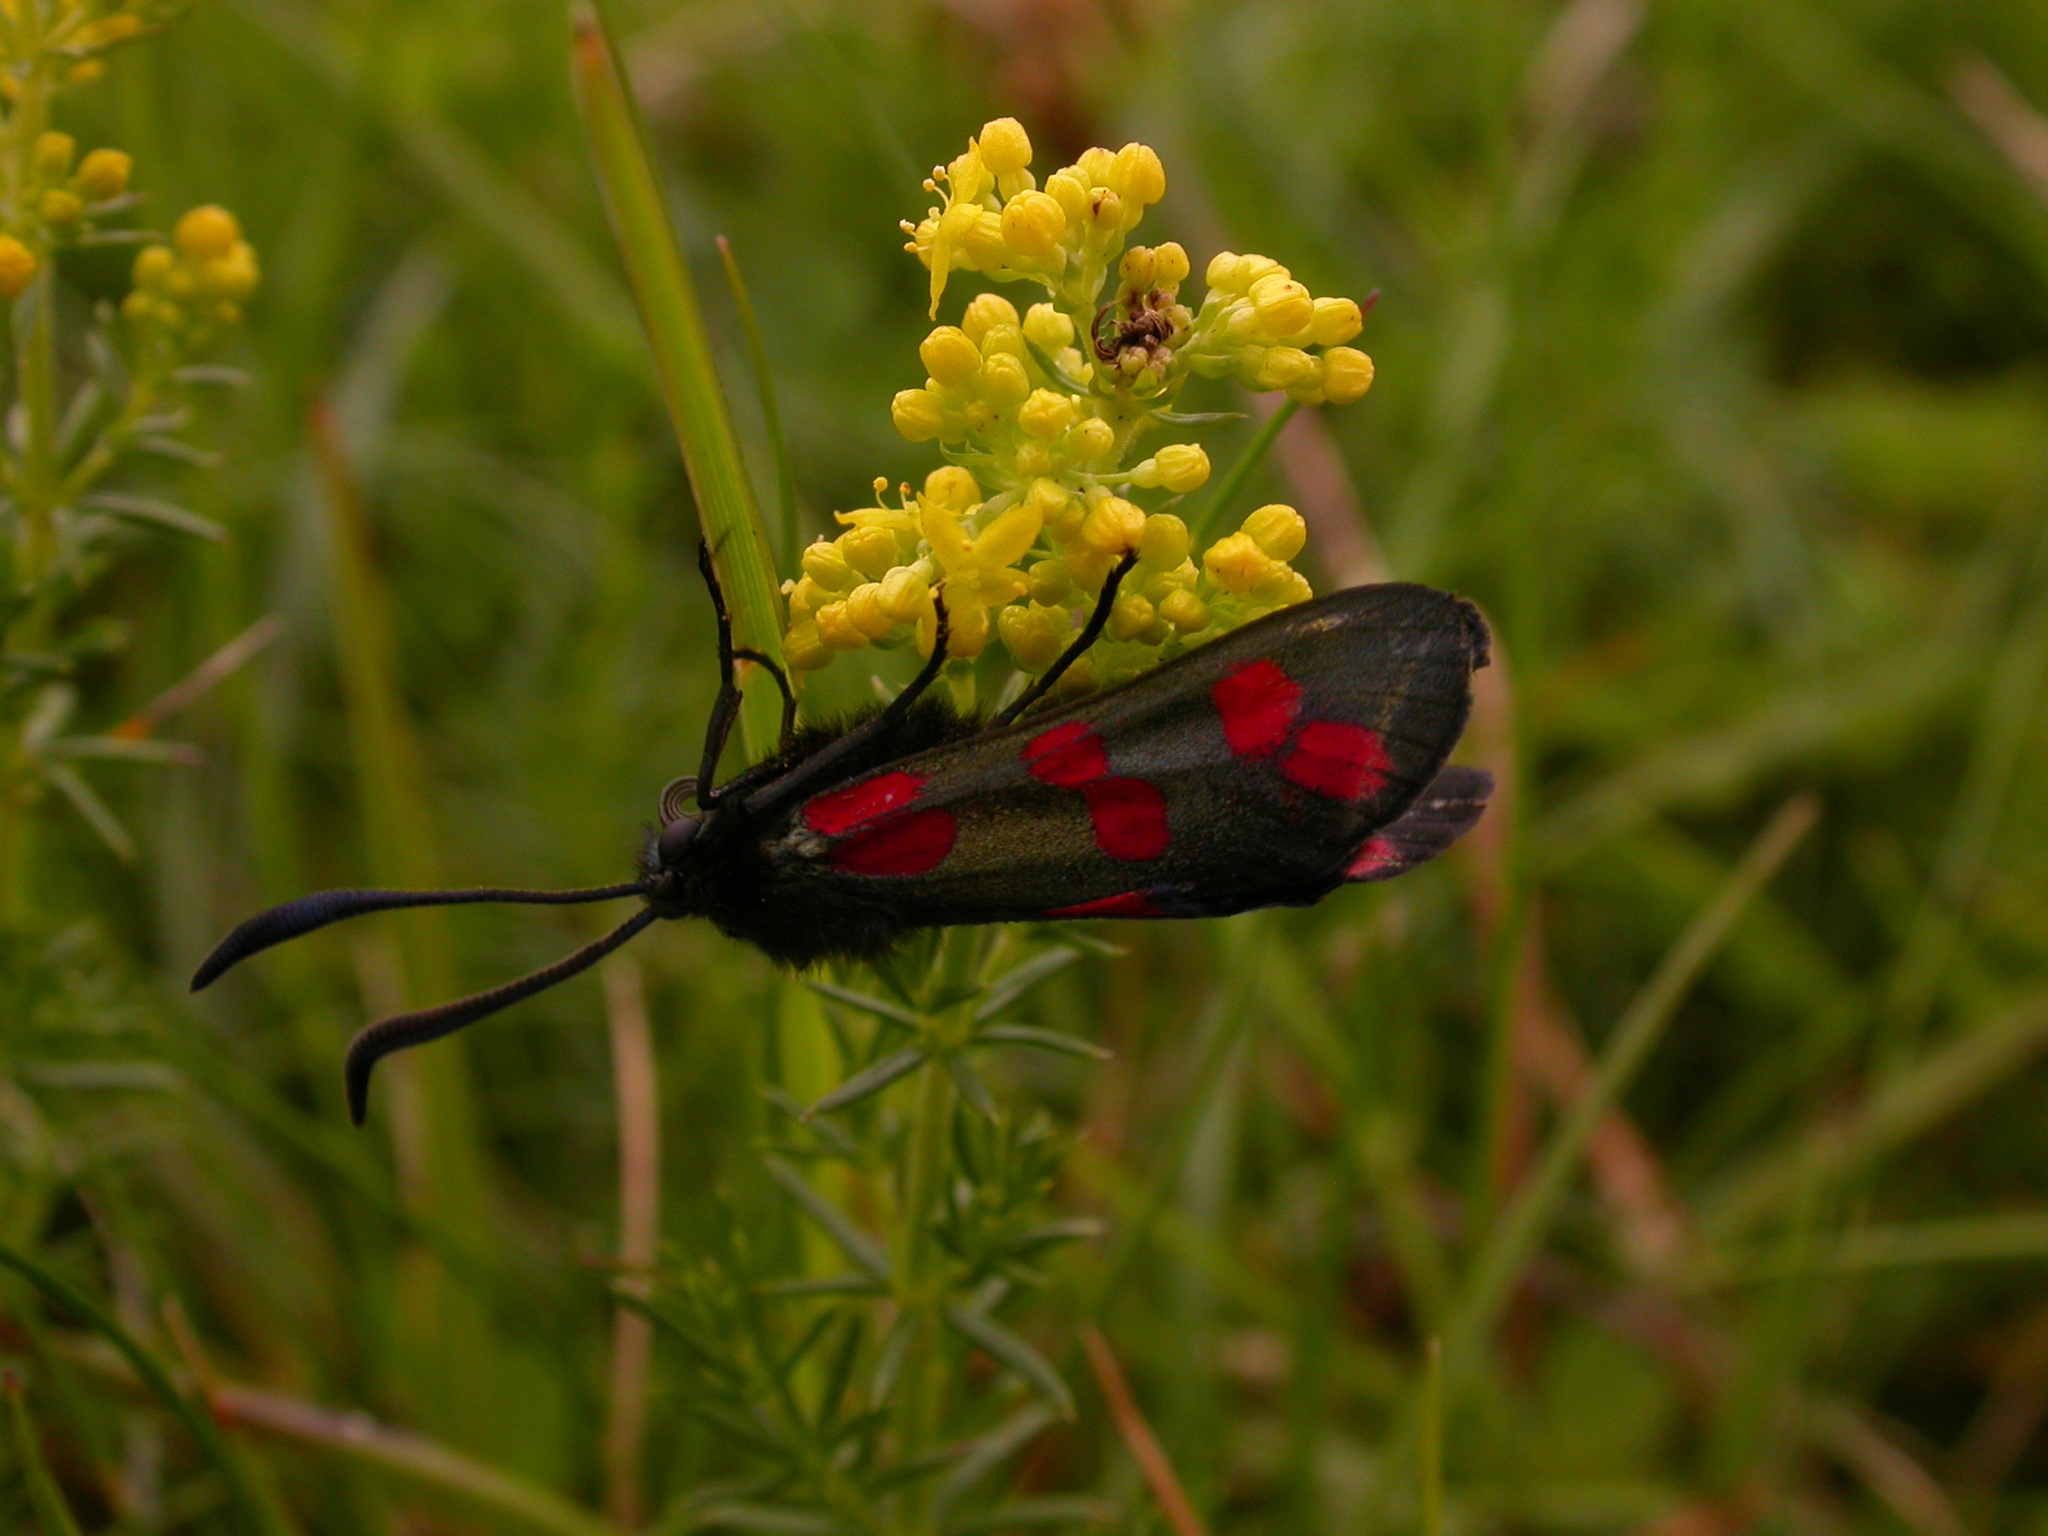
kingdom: Animalia
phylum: Arthropoda
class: Insecta
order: Lepidoptera
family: Zygaenidae
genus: Zygaena
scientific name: Zygaena filipendulae
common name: Six-spot burnet
